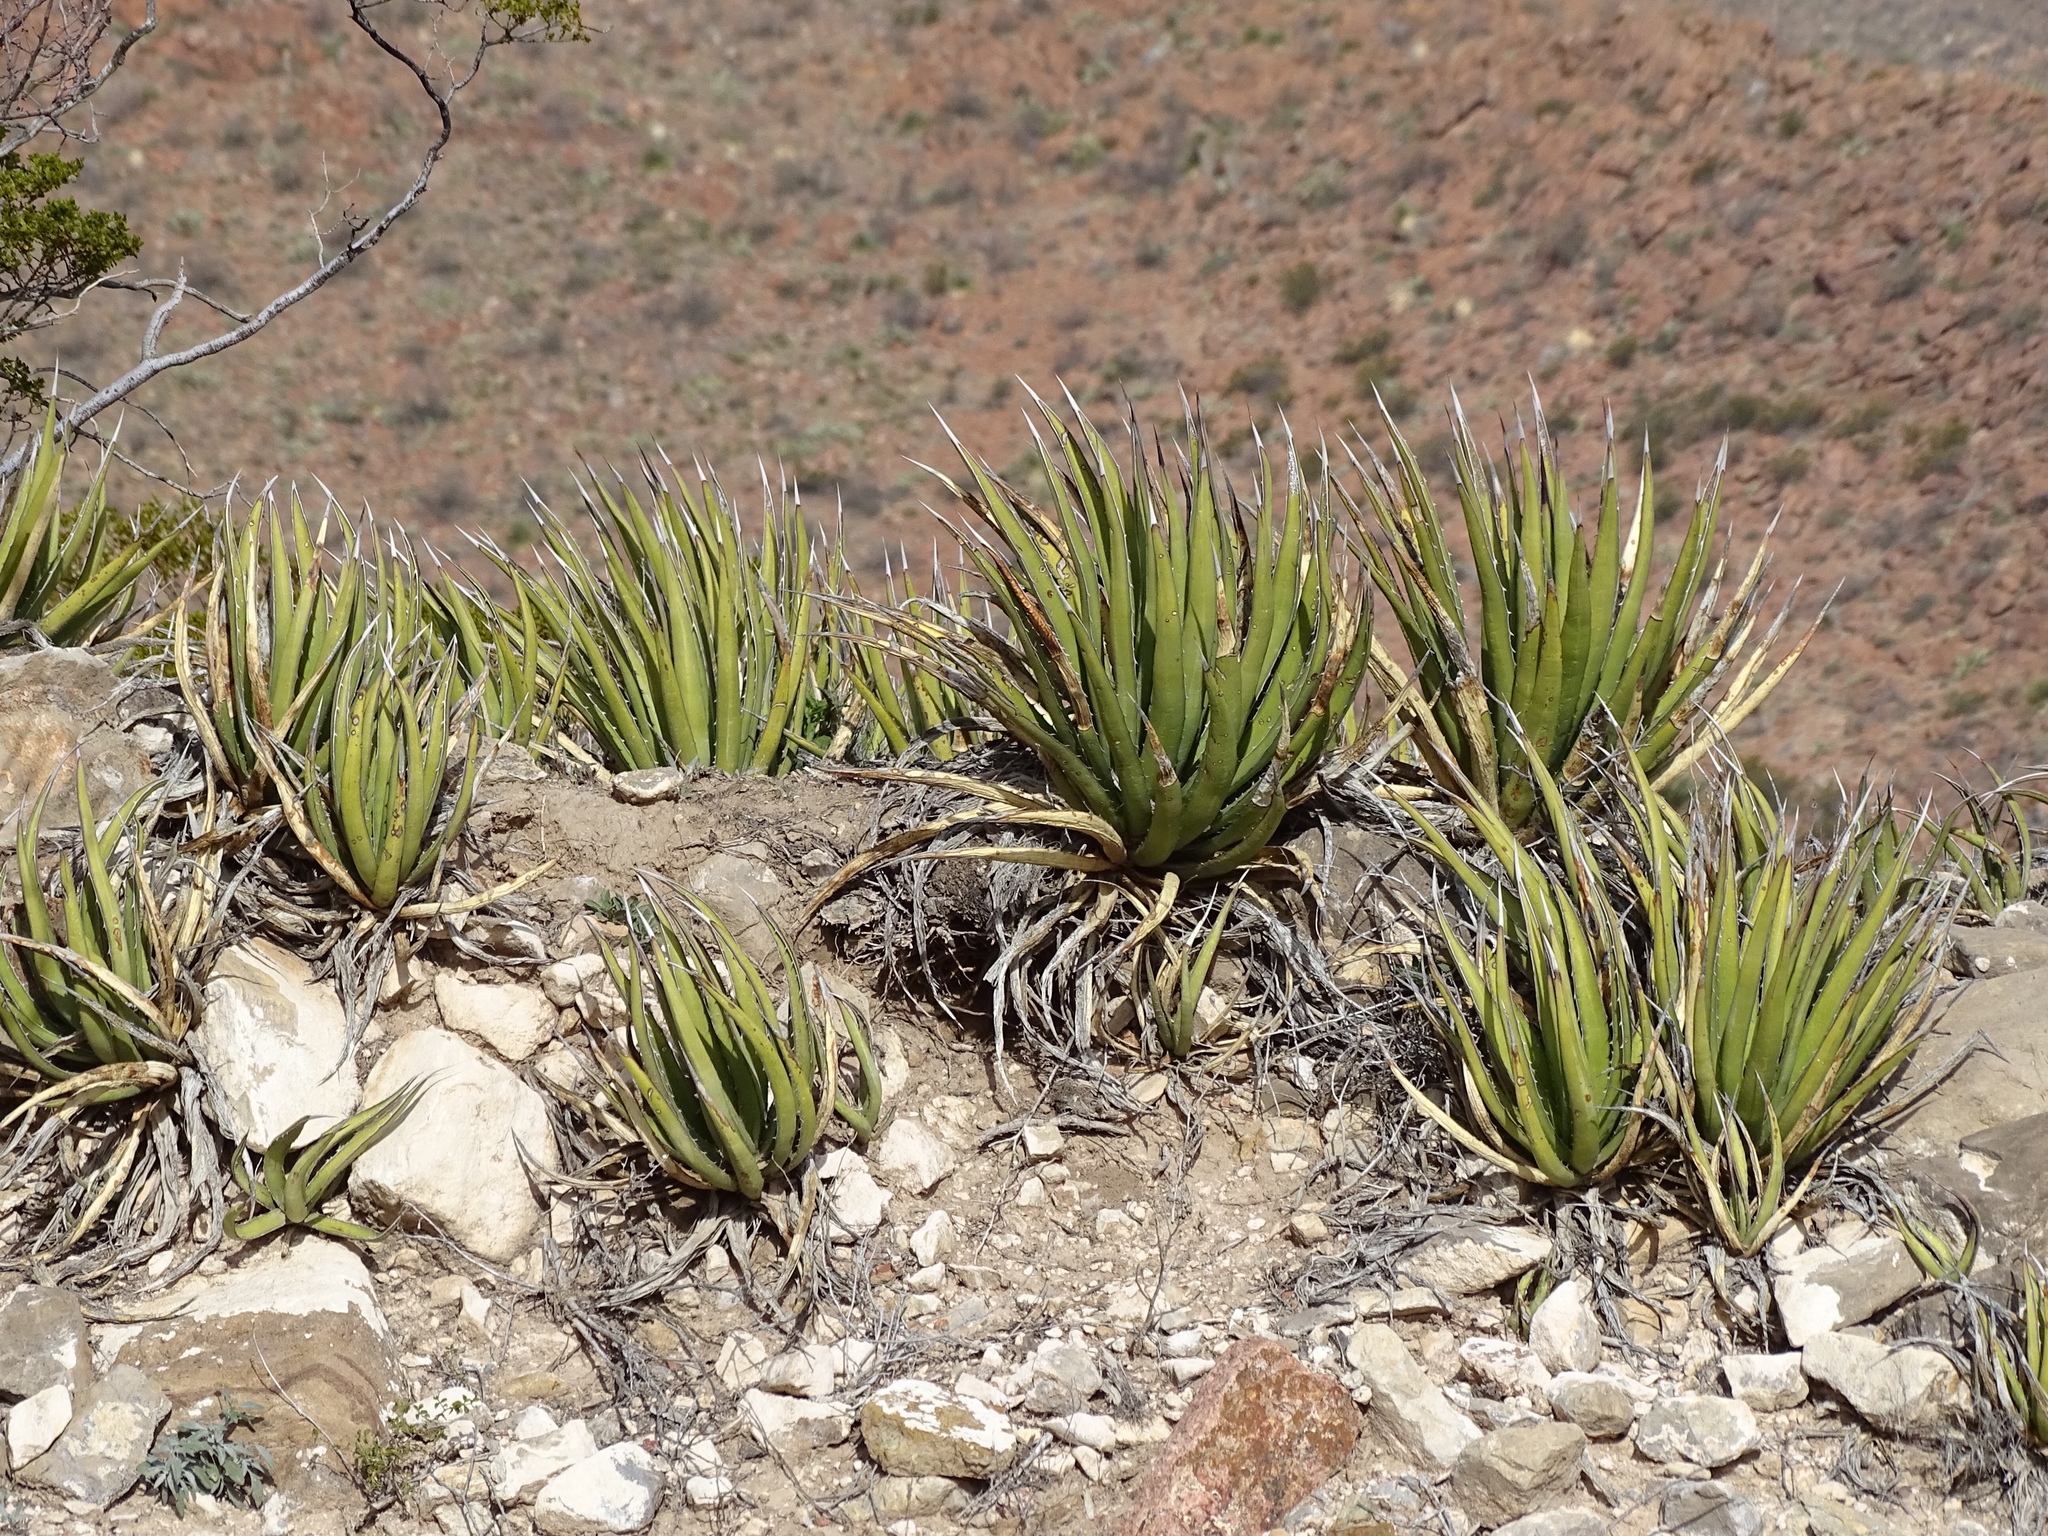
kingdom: Plantae
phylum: Tracheophyta
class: Liliopsida
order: Asparagales
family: Asparagaceae
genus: Agave
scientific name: Agave lechuguilla
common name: Lecheguilla agave
